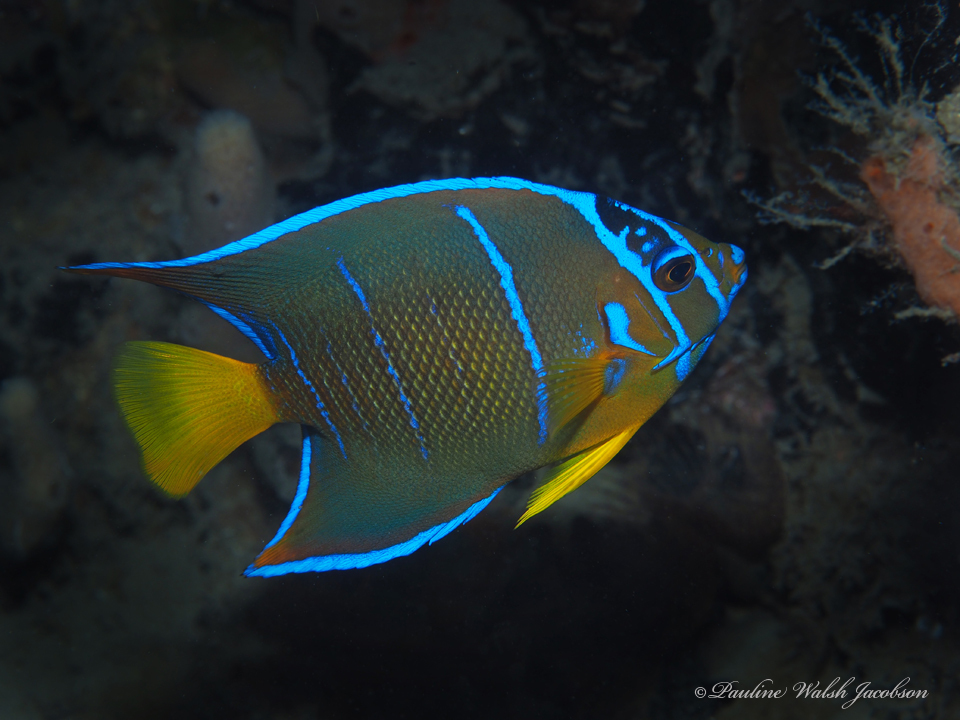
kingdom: Animalia
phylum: Chordata
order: Perciformes
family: Pomacanthidae
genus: Holacanthus
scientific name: Holacanthus ciliaris
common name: Queen angelfish
